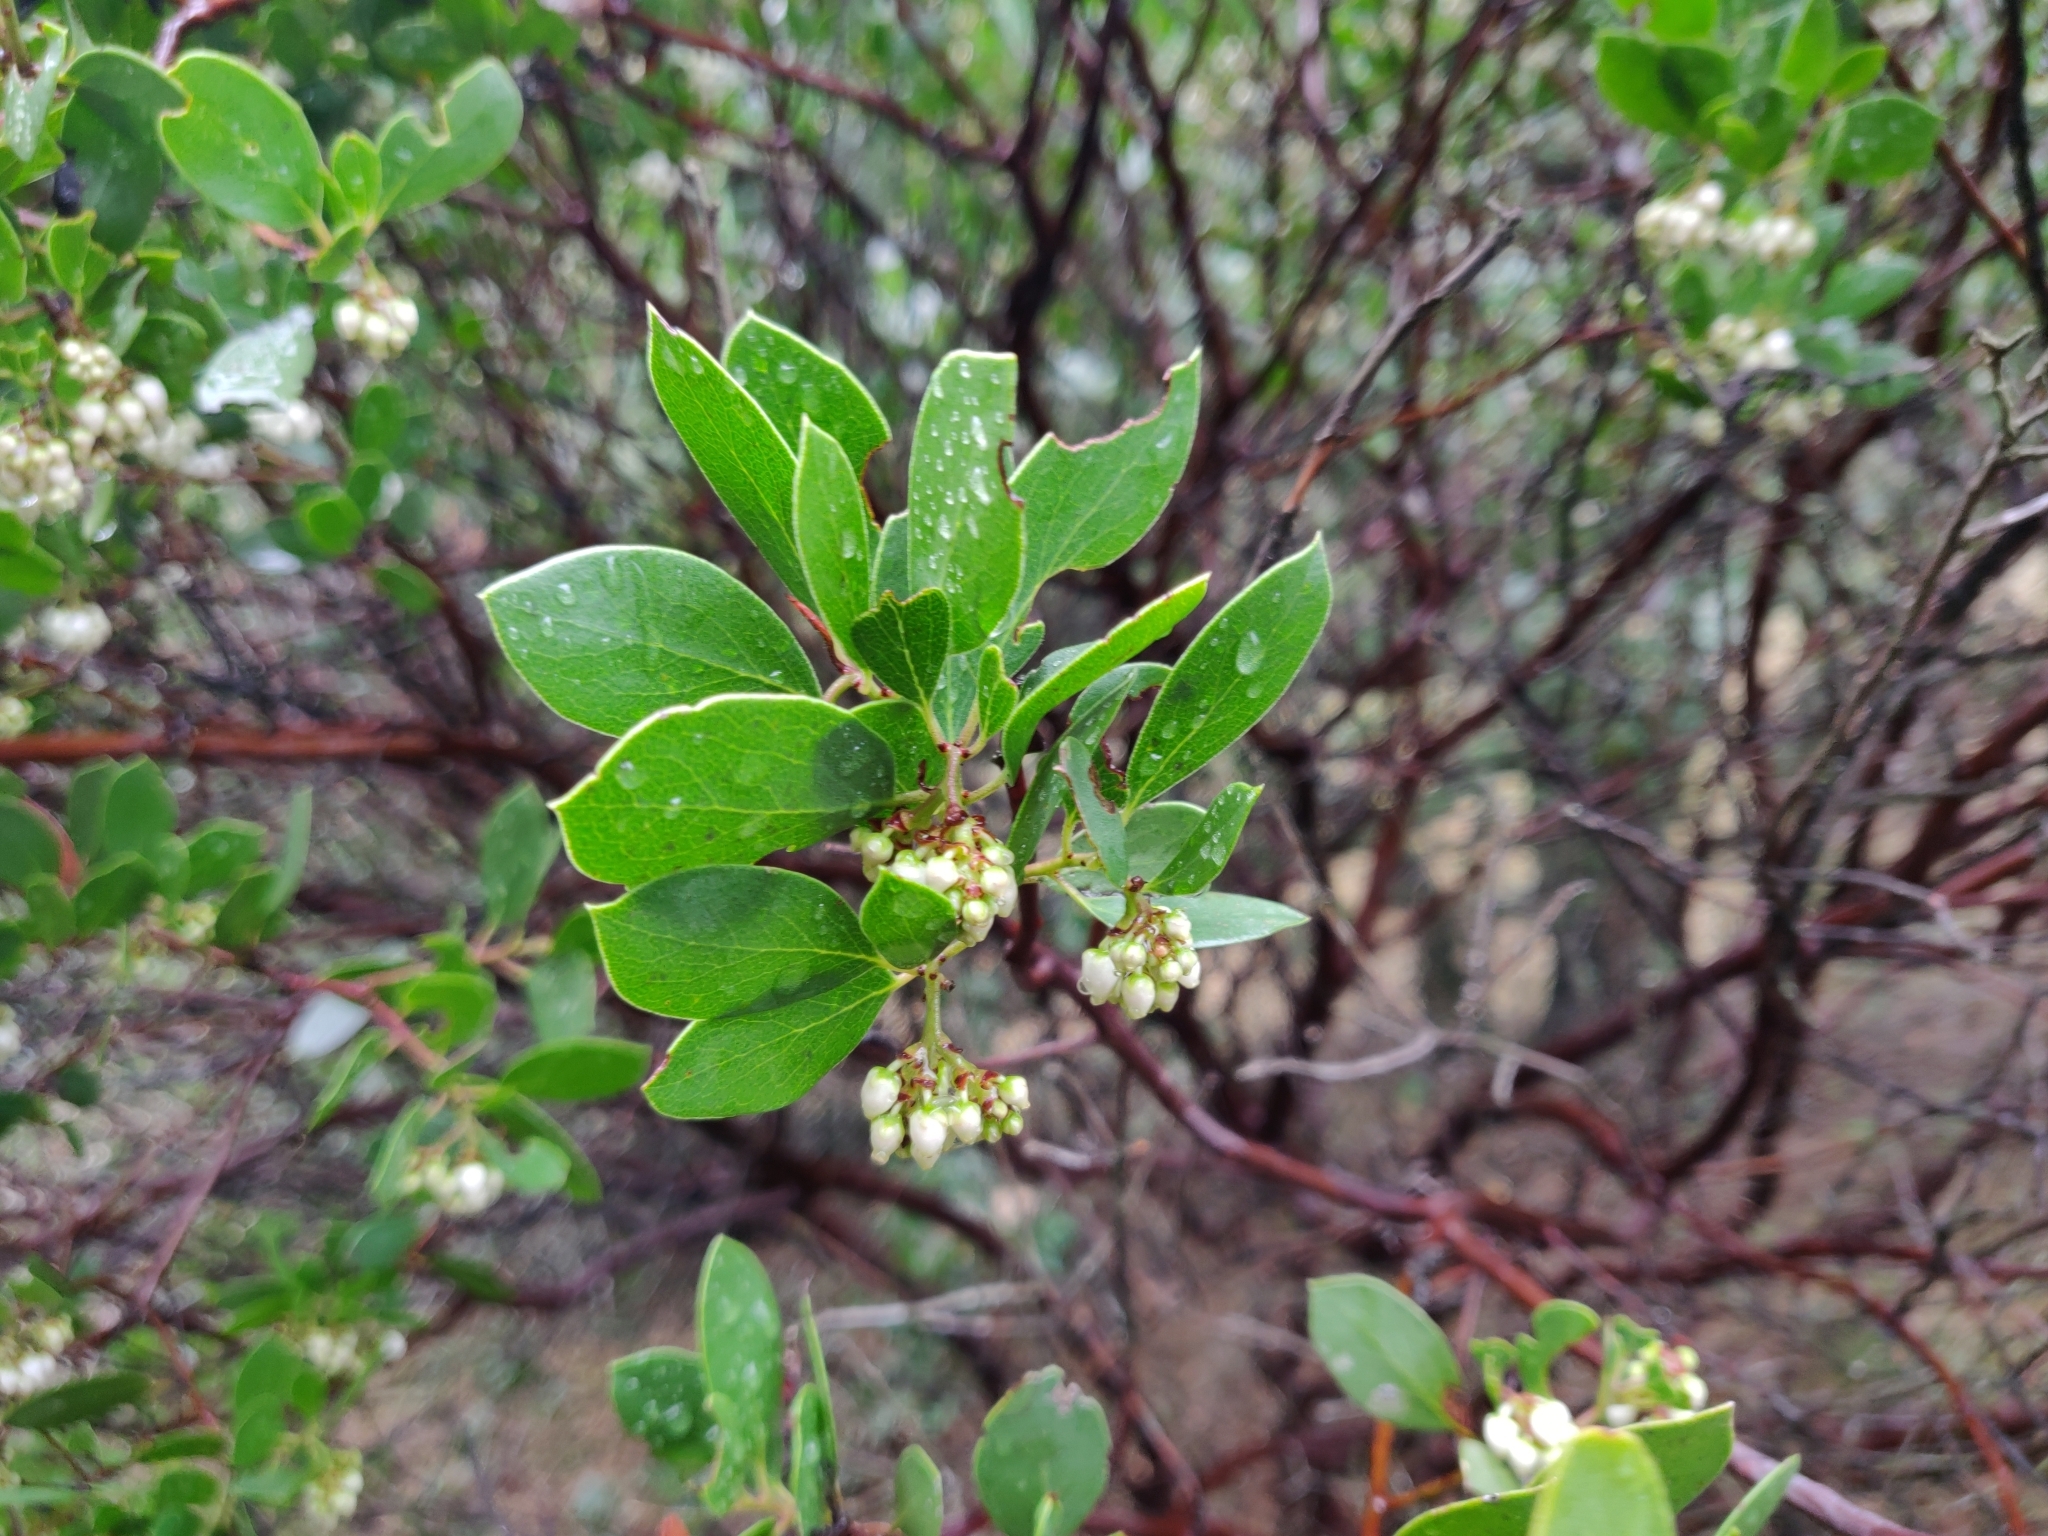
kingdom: Plantae
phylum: Tracheophyta
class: Magnoliopsida
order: Ericales
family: Ericaceae
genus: Arctostaphylos
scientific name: Arctostaphylos manzanita
